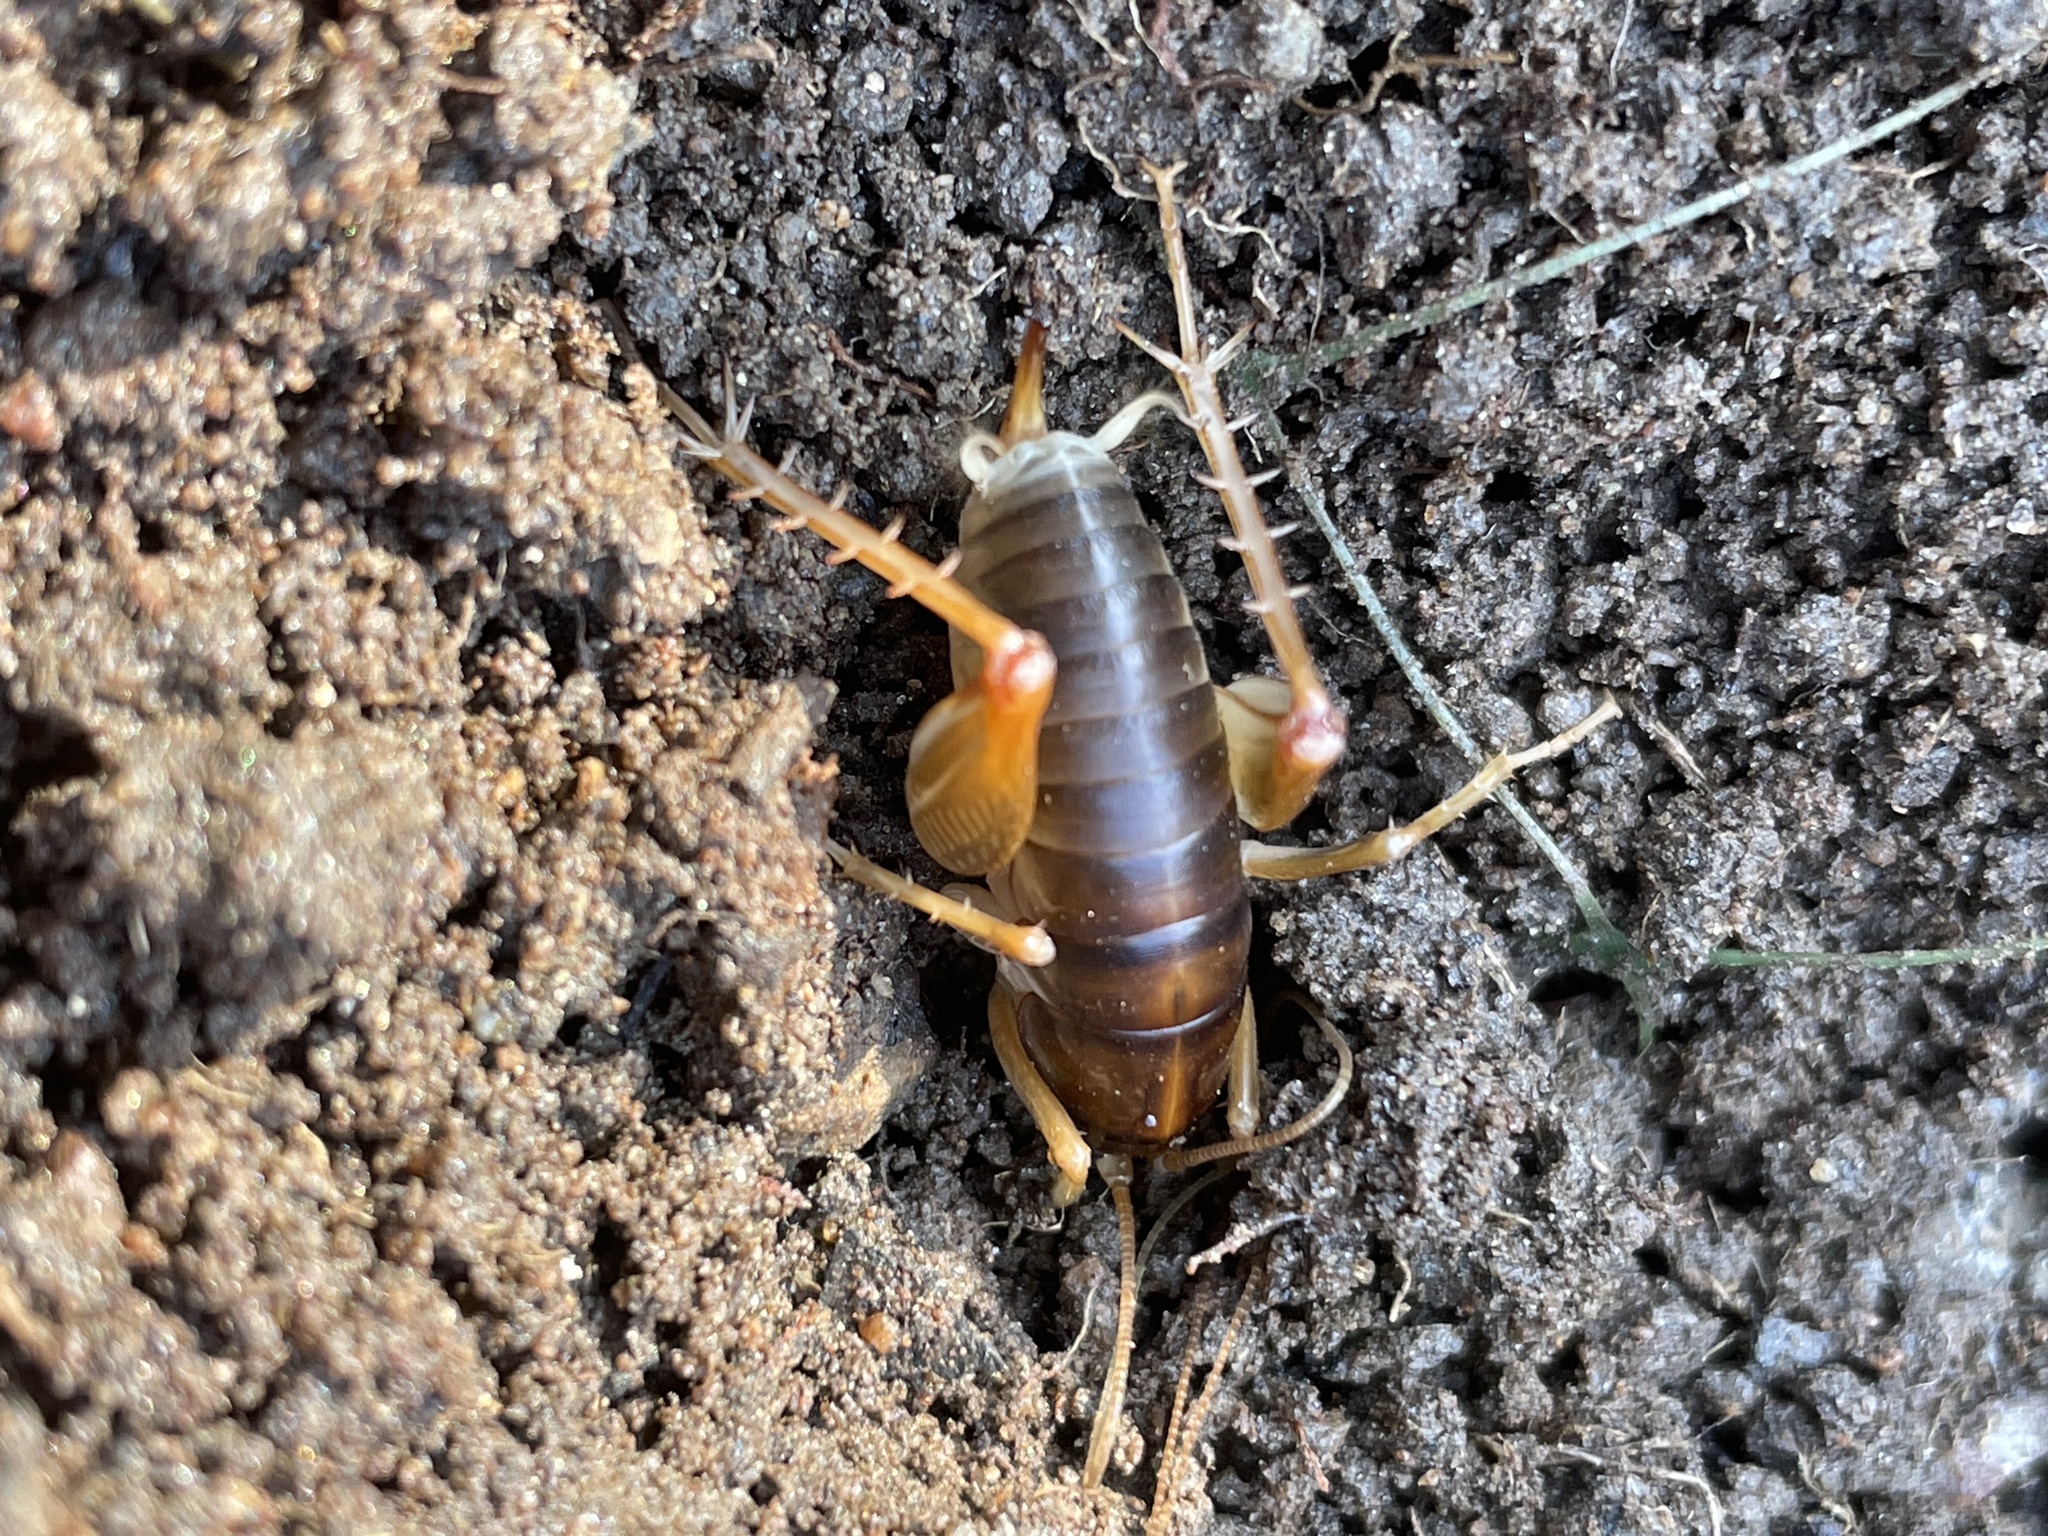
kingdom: Animalia
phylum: Arthropoda
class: Insecta
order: Orthoptera
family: Rhaphidophoridae
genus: Ceuthophilus
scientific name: Ceuthophilus hesperus
